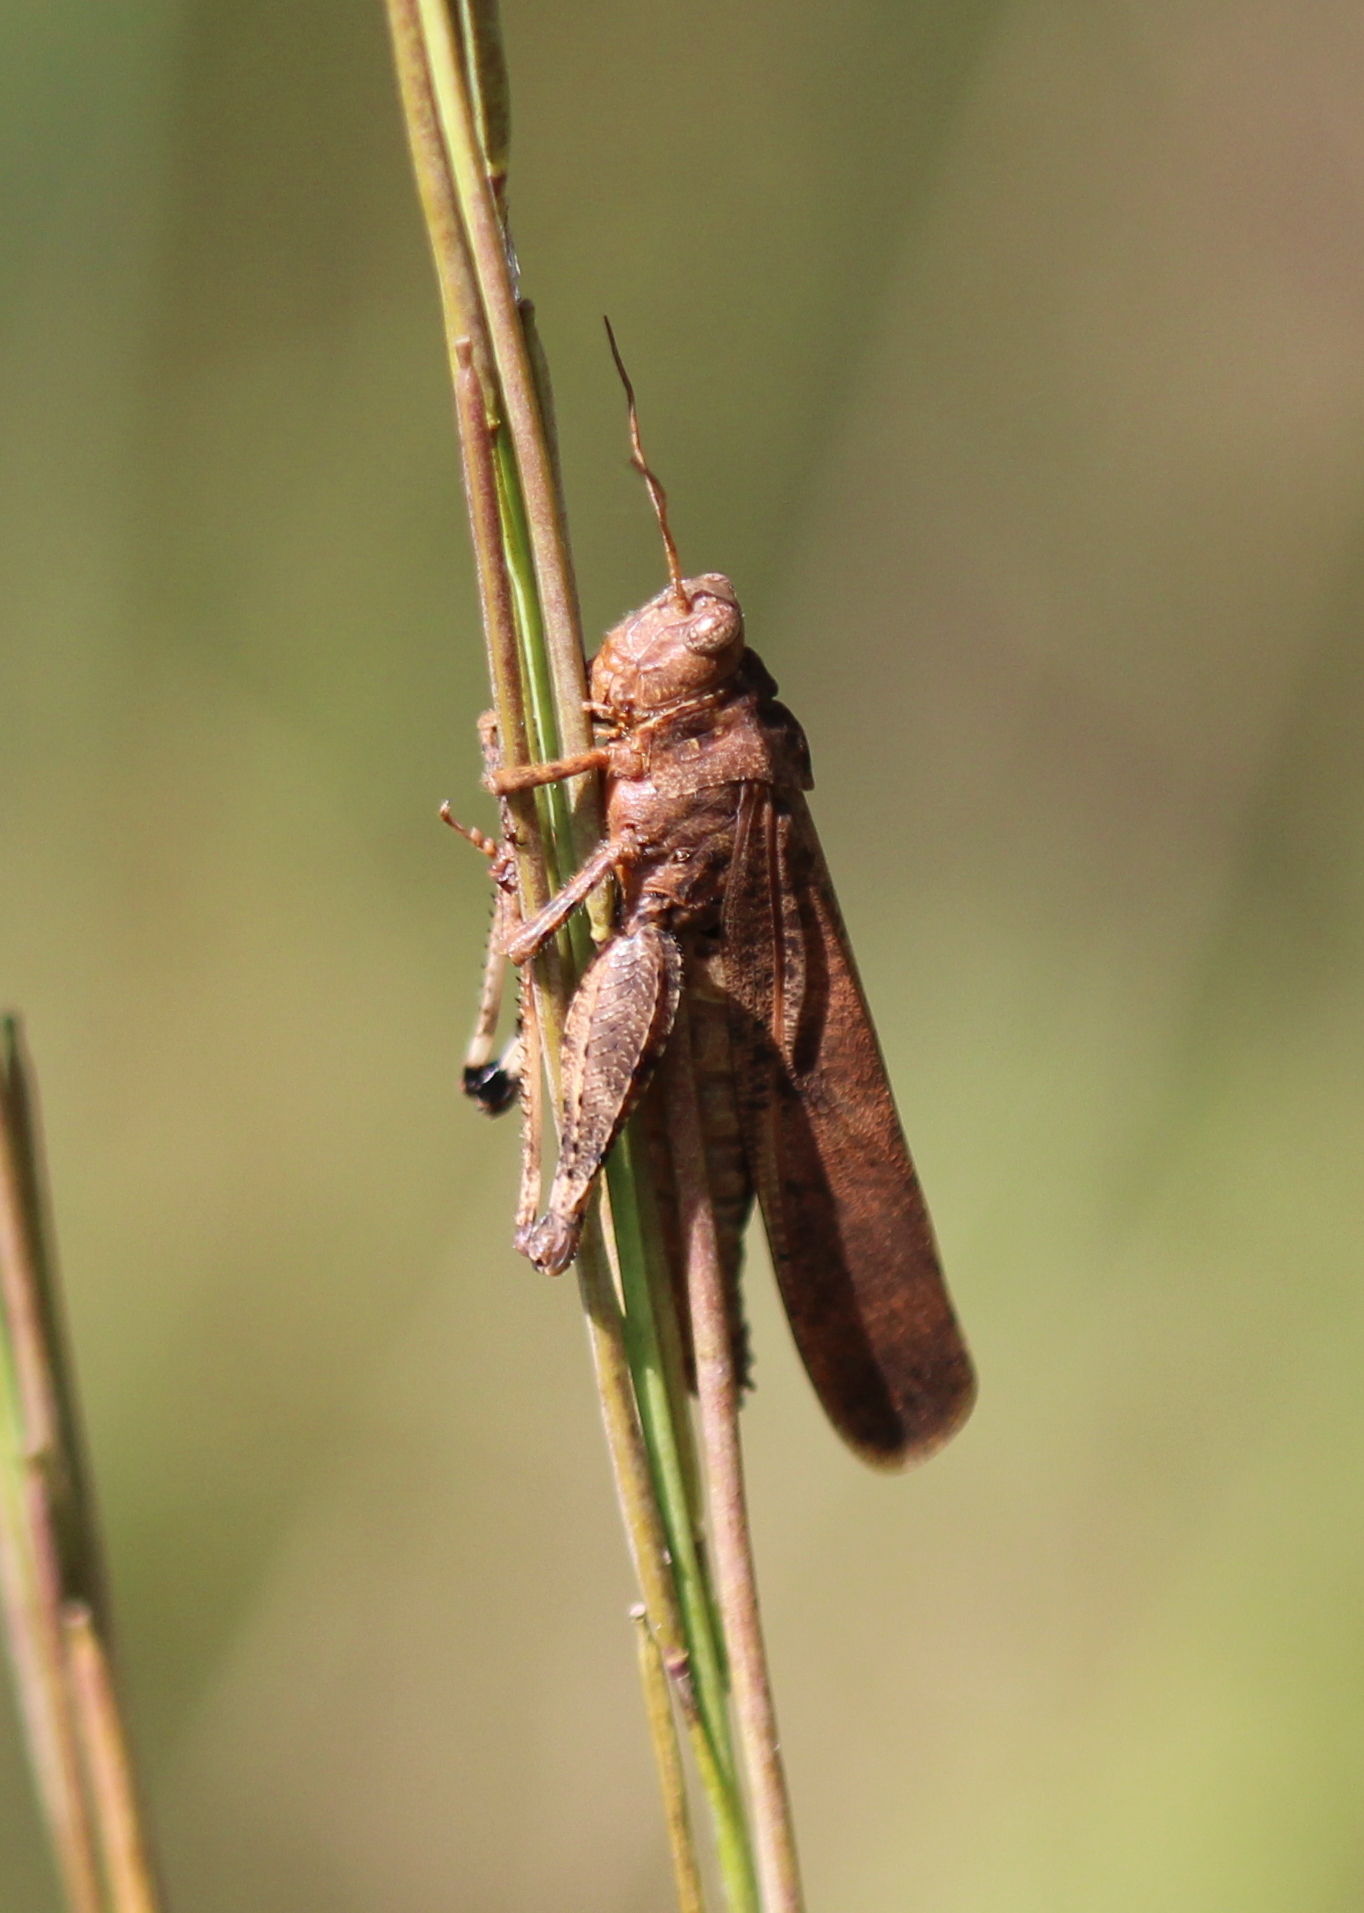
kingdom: Animalia
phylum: Arthropoda
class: Insecta
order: Orthoptera
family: Acrididae
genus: Dissosteira
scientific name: Dissosteira carolina
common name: Carolina grasshopper
